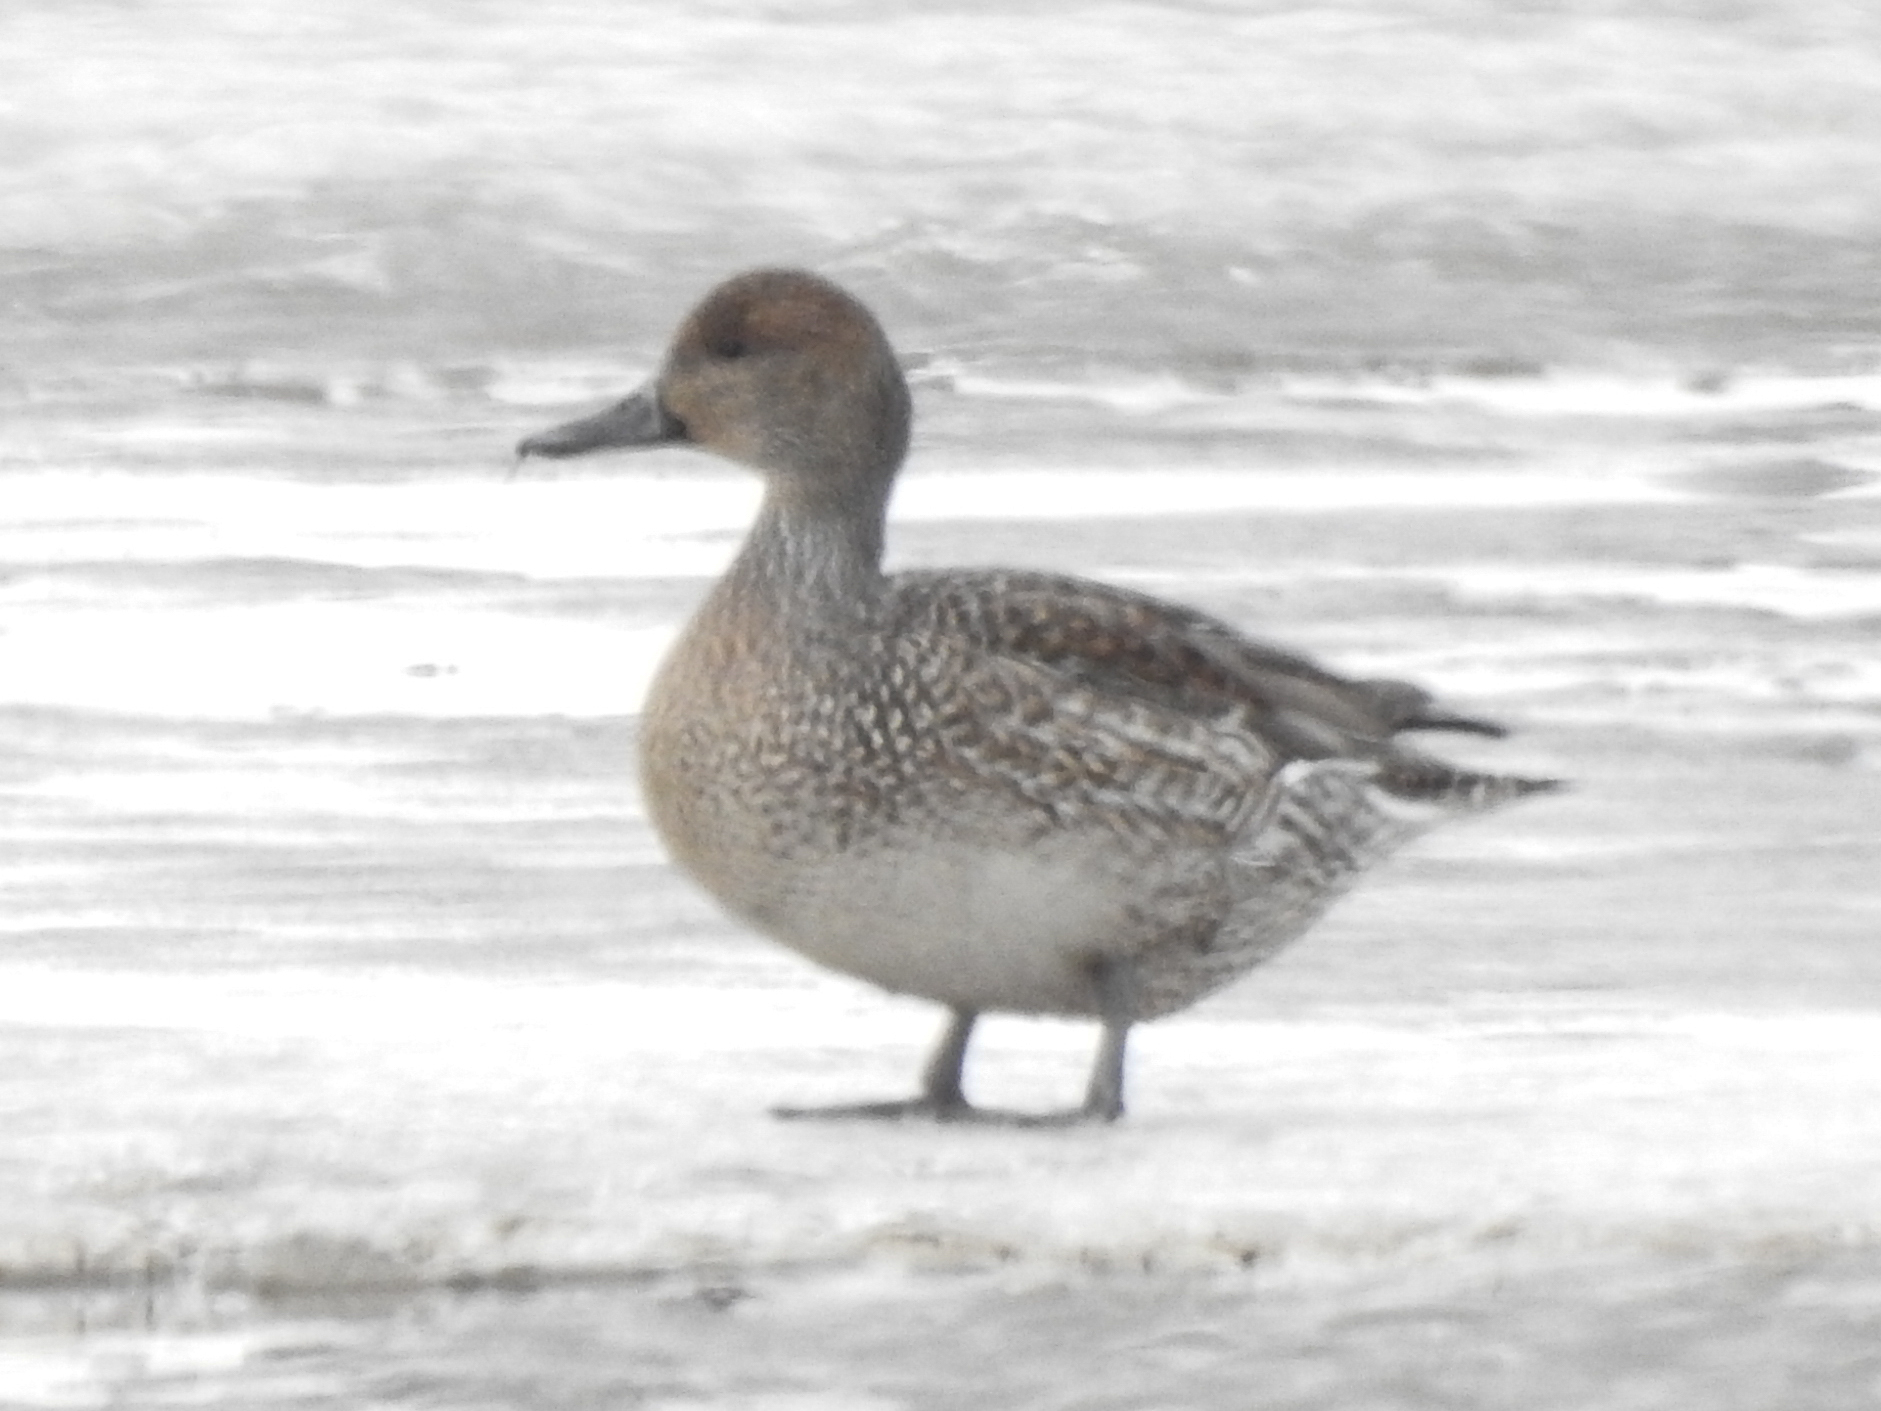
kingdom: Animalia
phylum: Chordata
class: Aves
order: Anseriformes
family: Anatidae
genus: Anas
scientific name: Anas acuta
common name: Northern pintail
